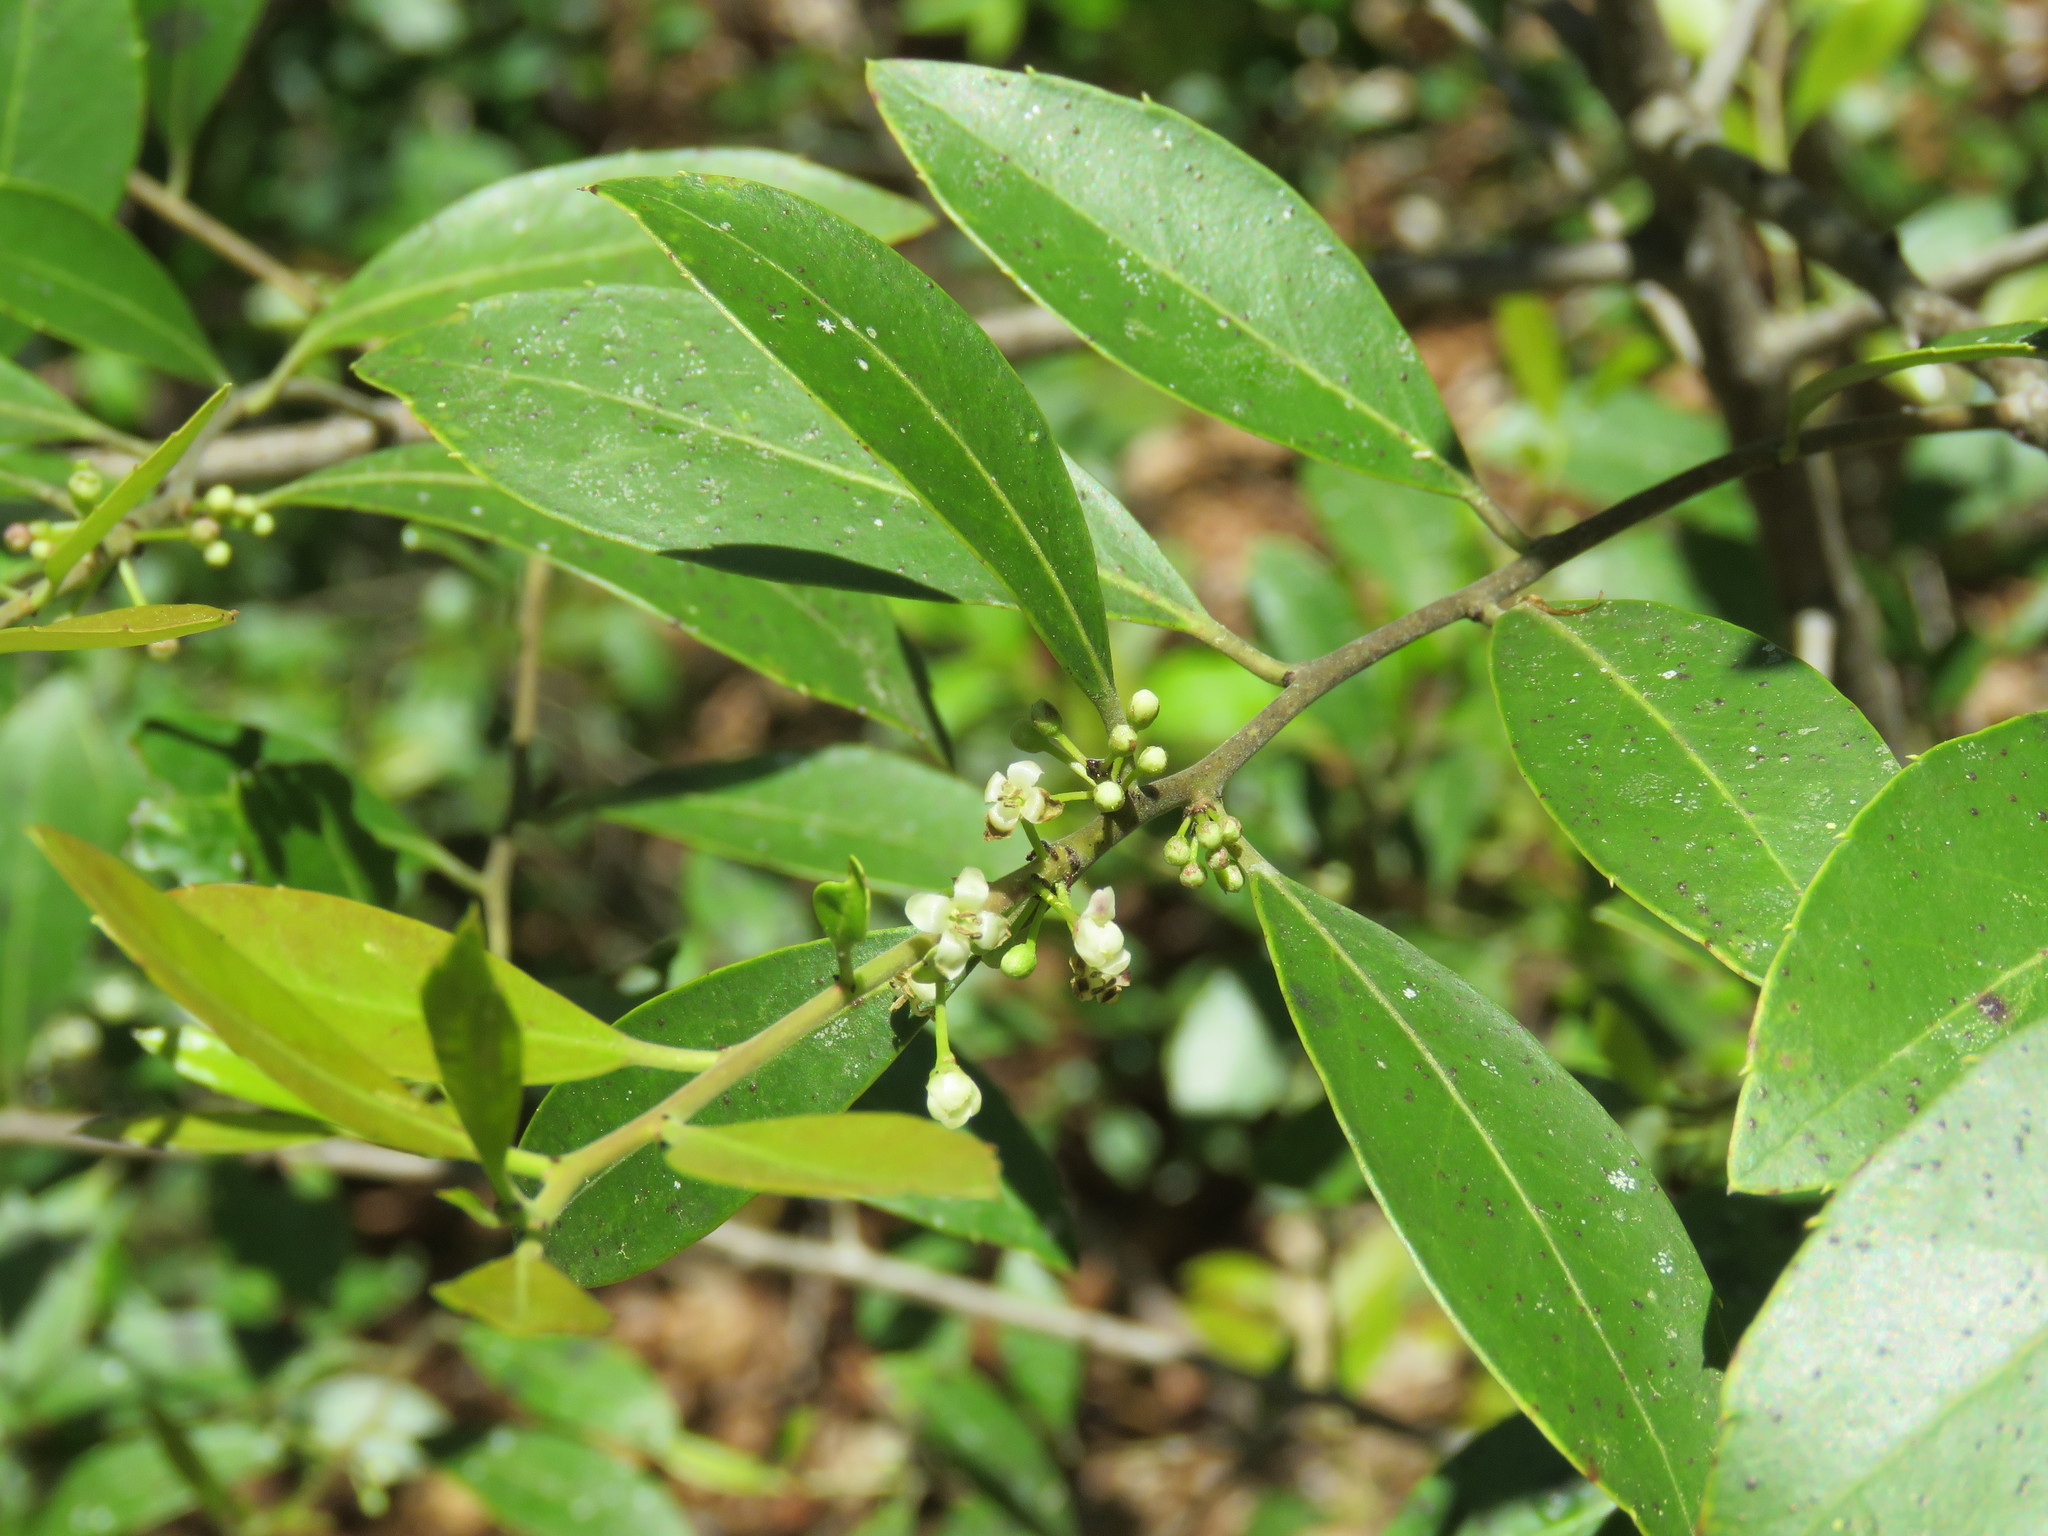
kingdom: Plantae
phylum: Tracheophyta
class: Magnoliopsida
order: Aquifoliales
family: Aquifoliaceae
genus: Ilex
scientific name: Ilex coriacea
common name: Sweet gallberry
